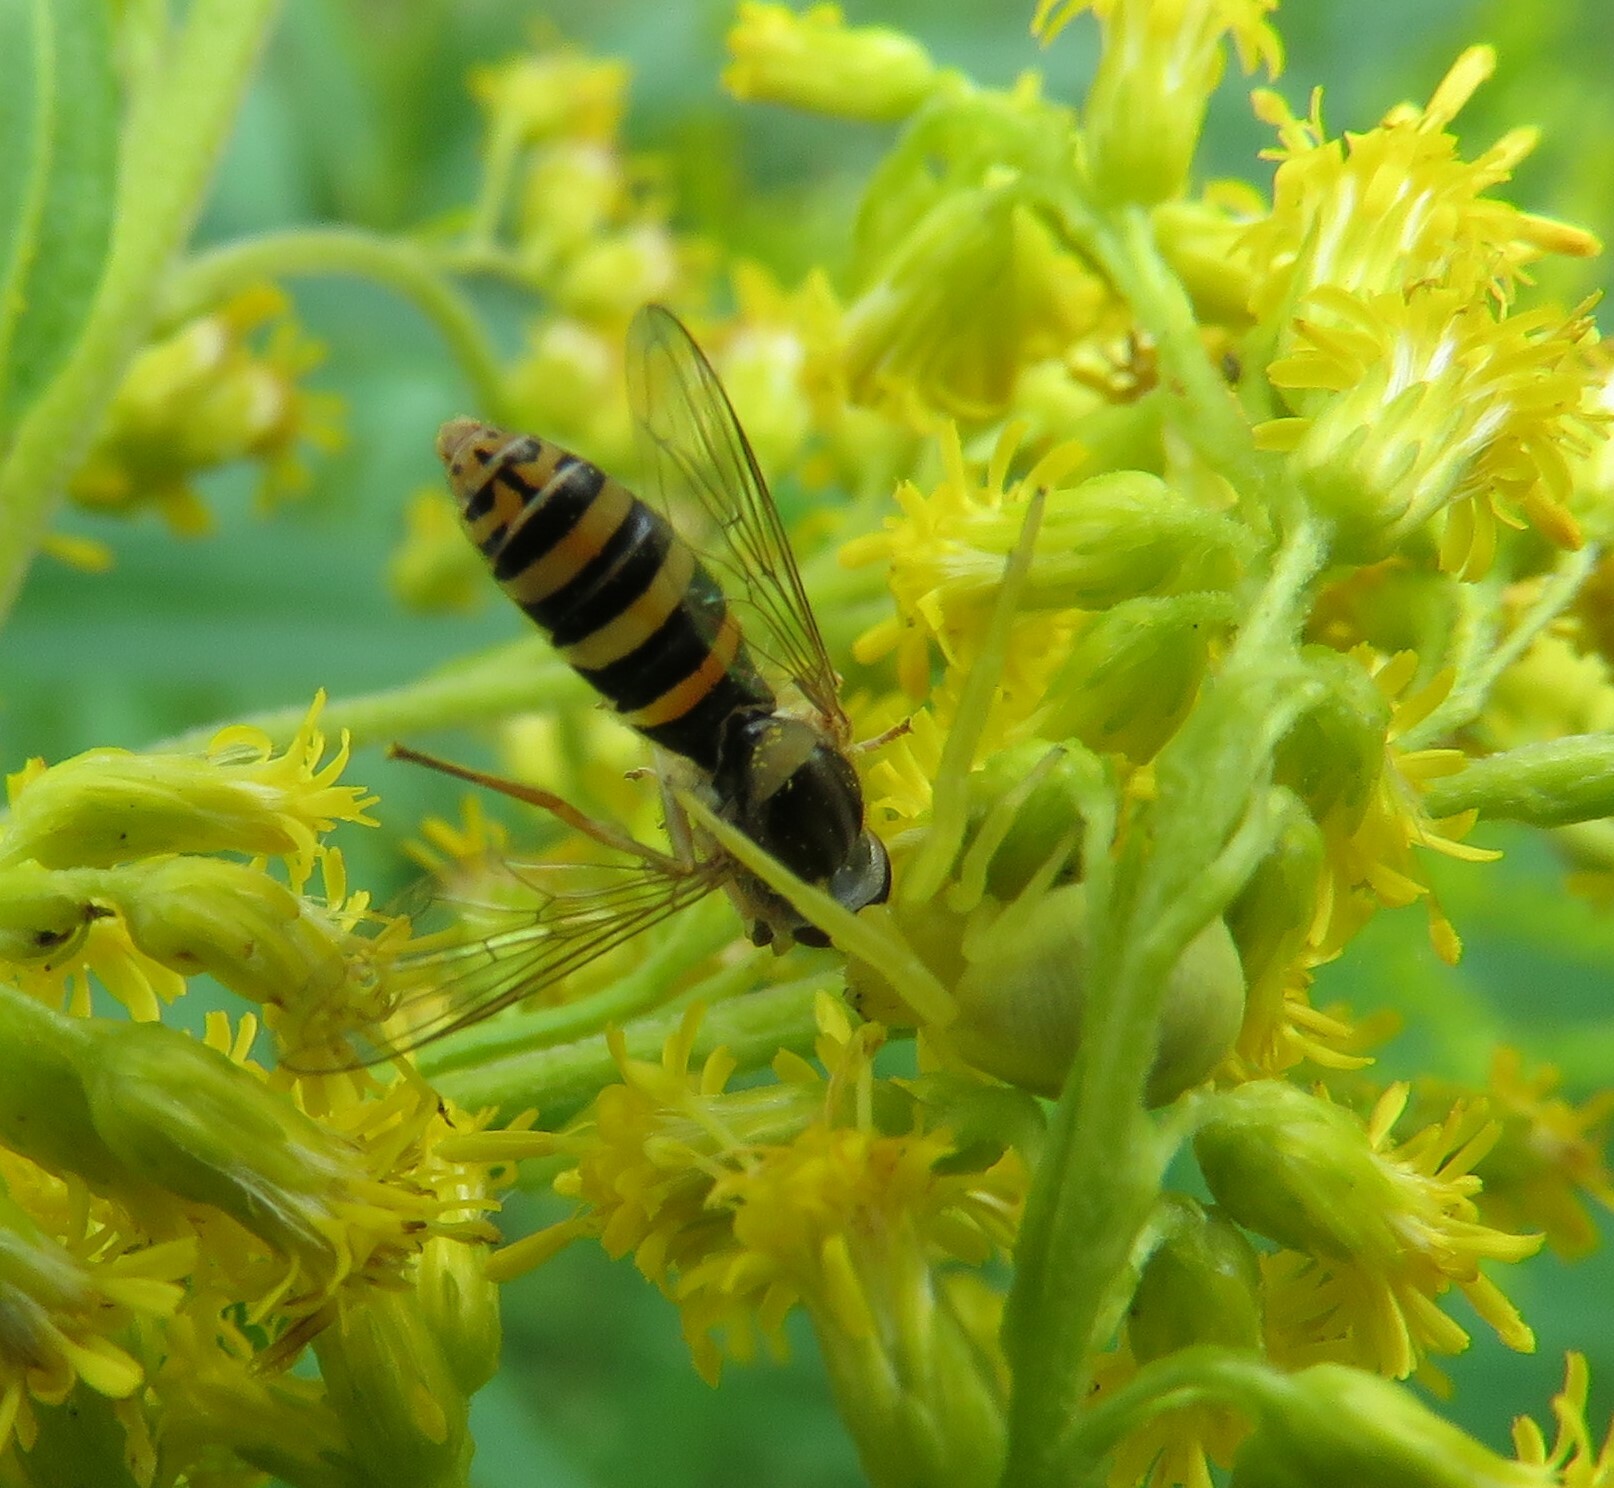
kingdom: Animalia
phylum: Arthropoda
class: Arachnida
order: Araneae
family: Thomisidae
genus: Misumena
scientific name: Misumena vatia
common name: Goldenrod crab spider
